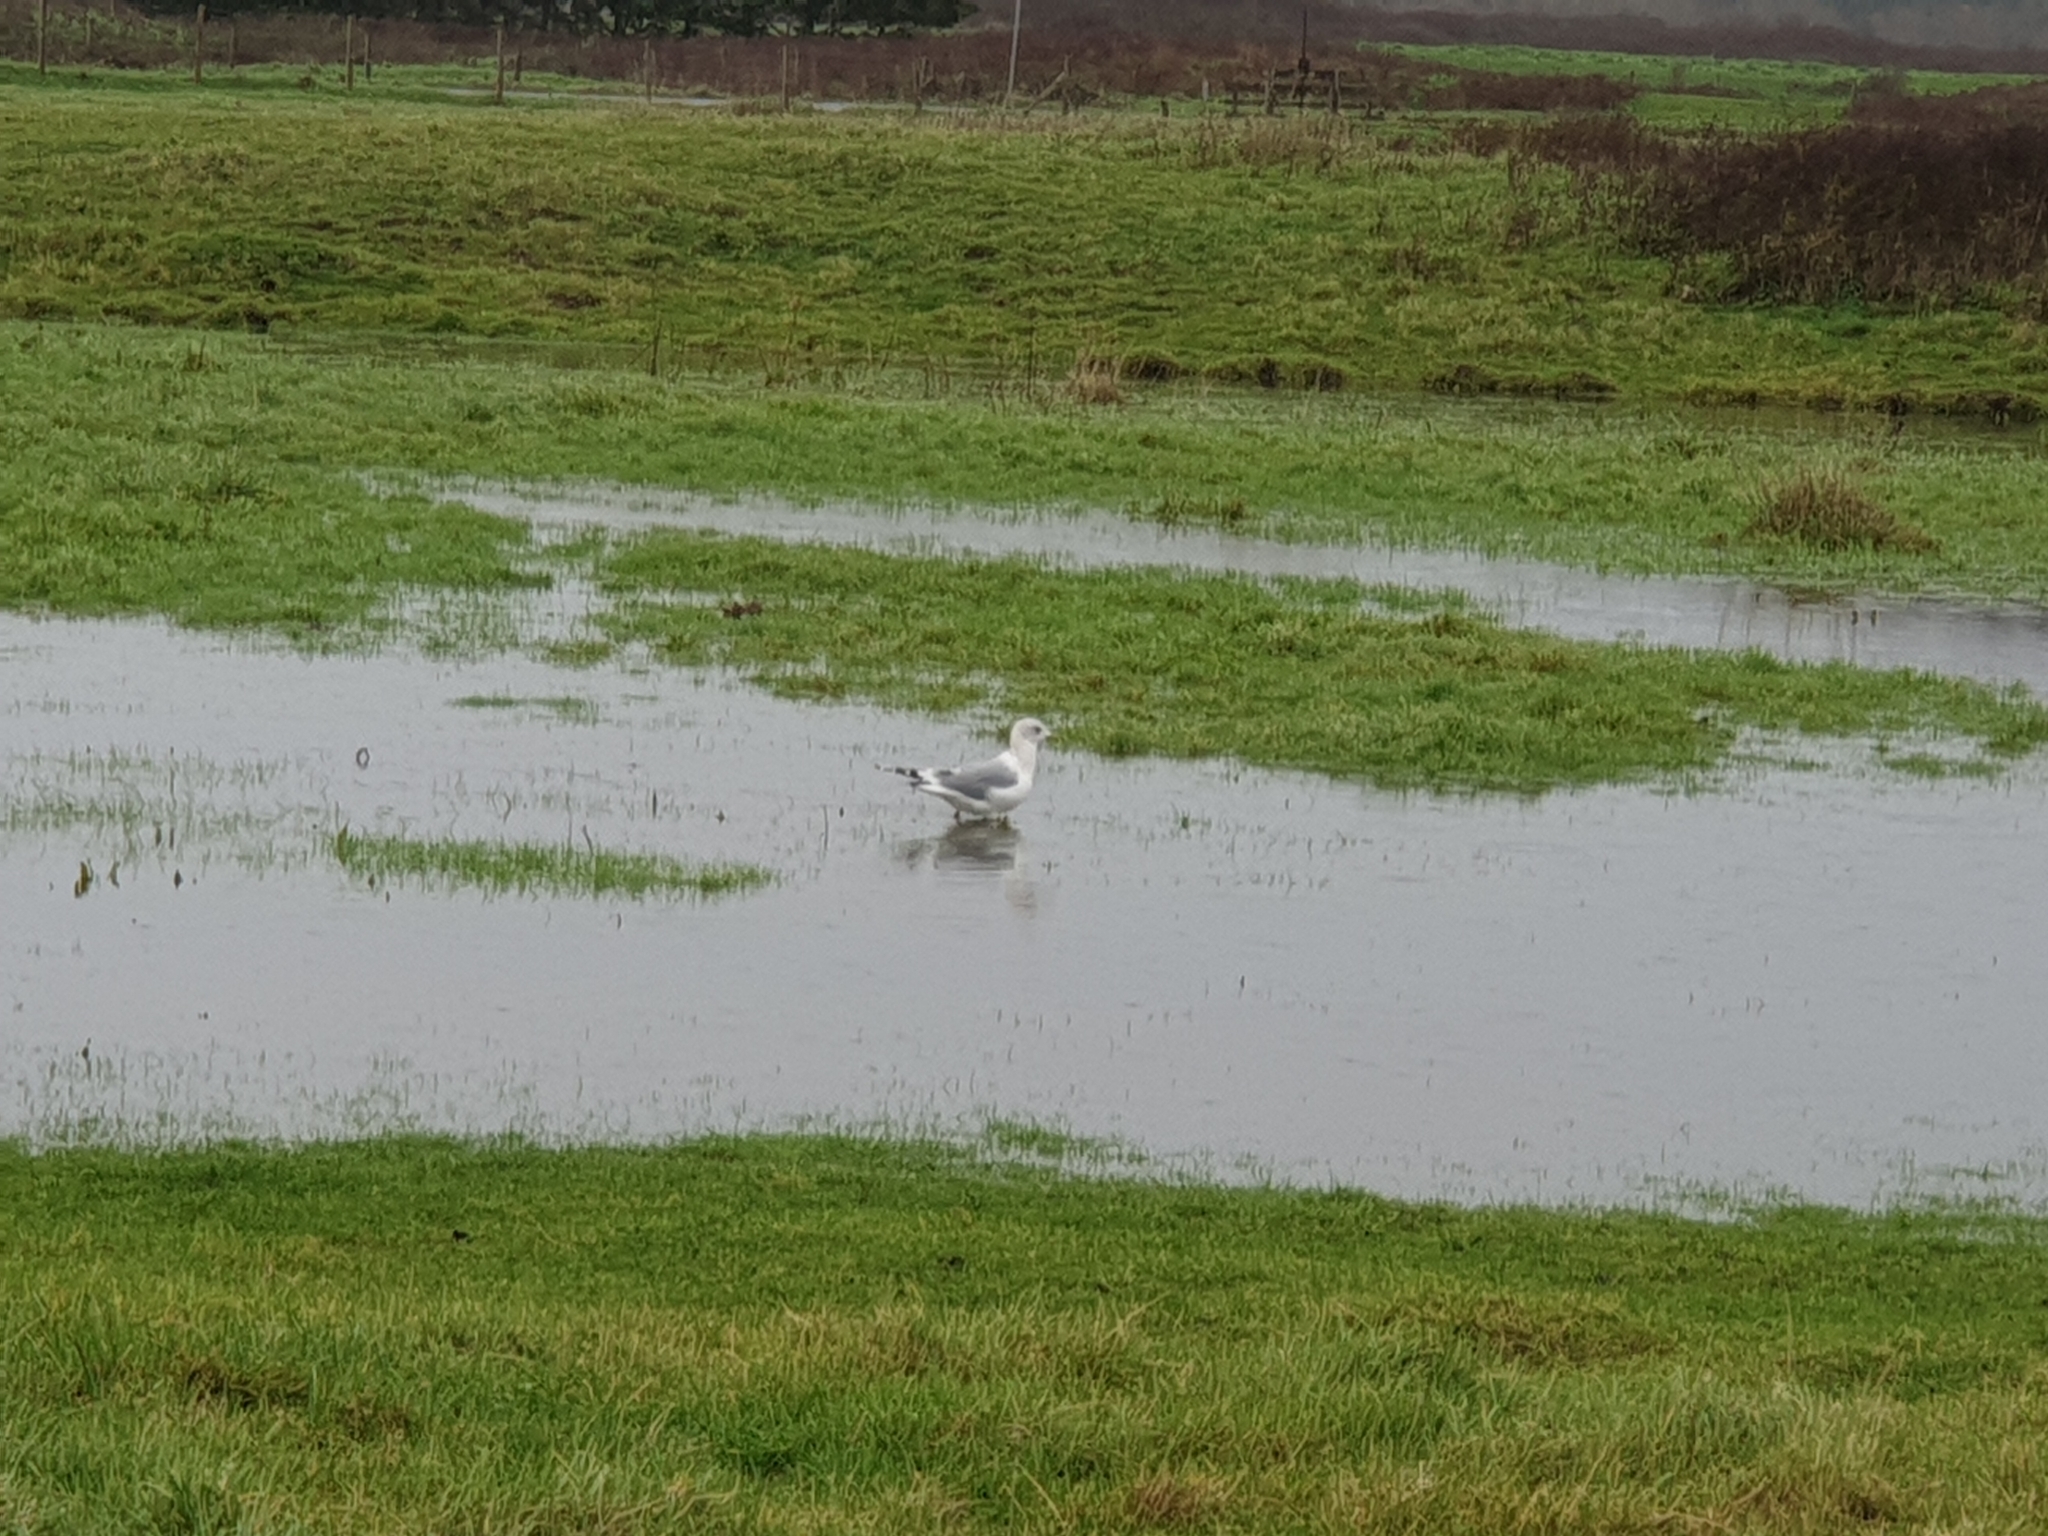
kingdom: Animalia
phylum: Chordata
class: Aves
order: Charadriiformes
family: Laridae
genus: Larus
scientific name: Larus canus
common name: Mew gull
